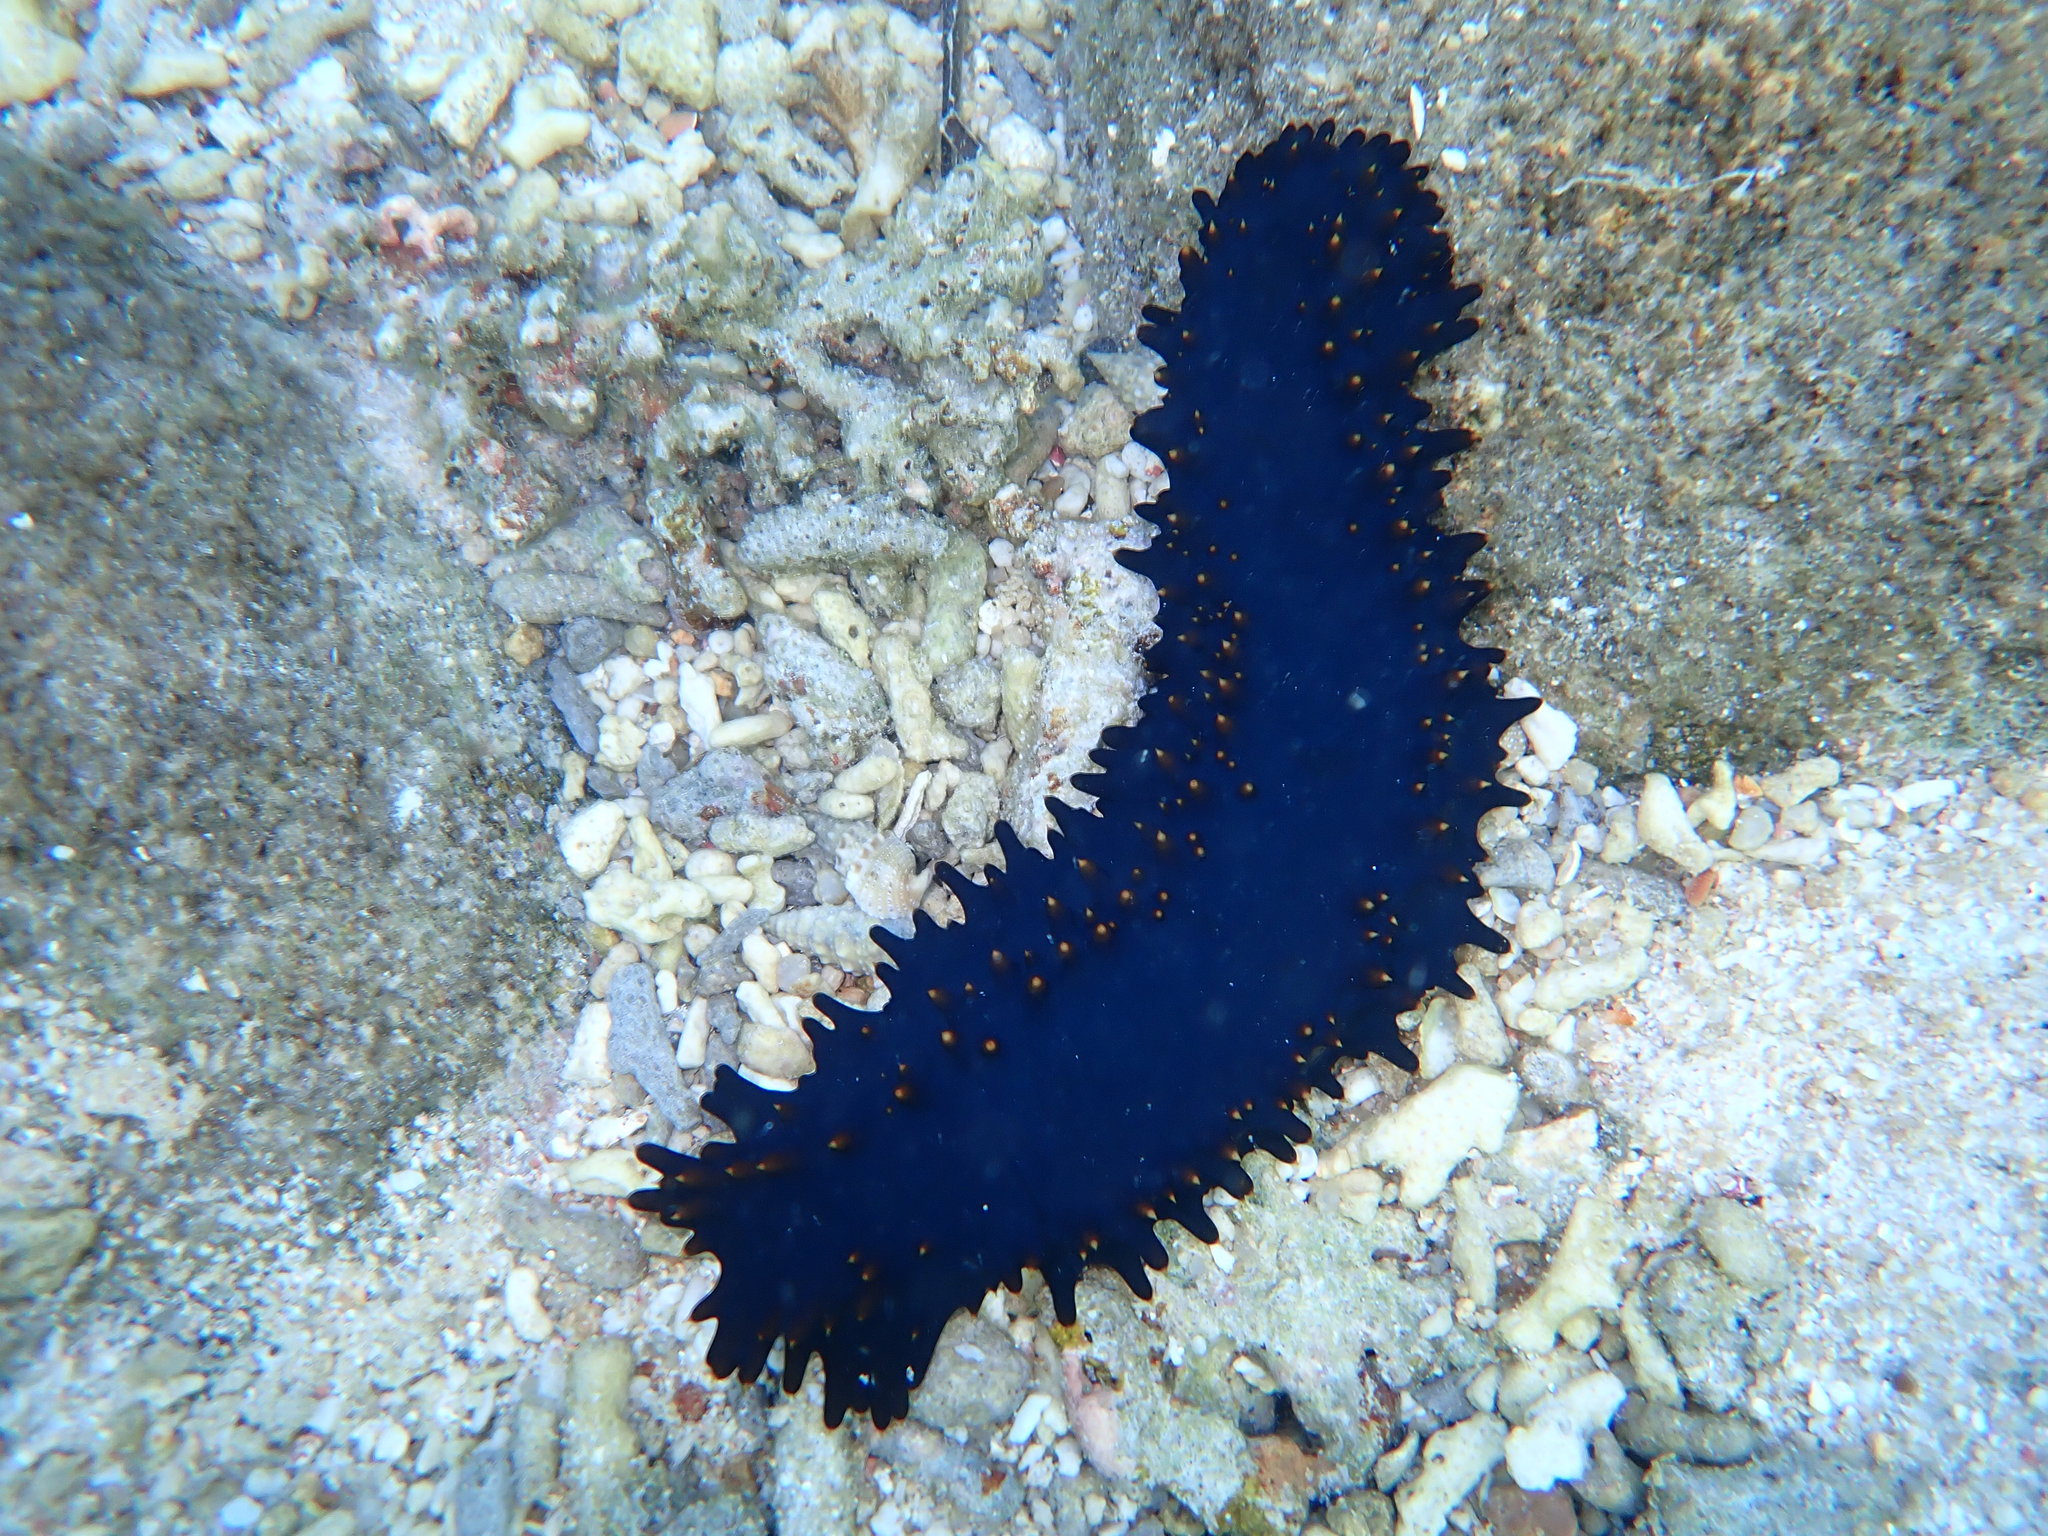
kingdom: Animalia
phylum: Echinodermata
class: Holothuroidea
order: Synallactida
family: Stichopodidae
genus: Stichopus
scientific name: Stichopus chloronotus
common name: Greenfish
